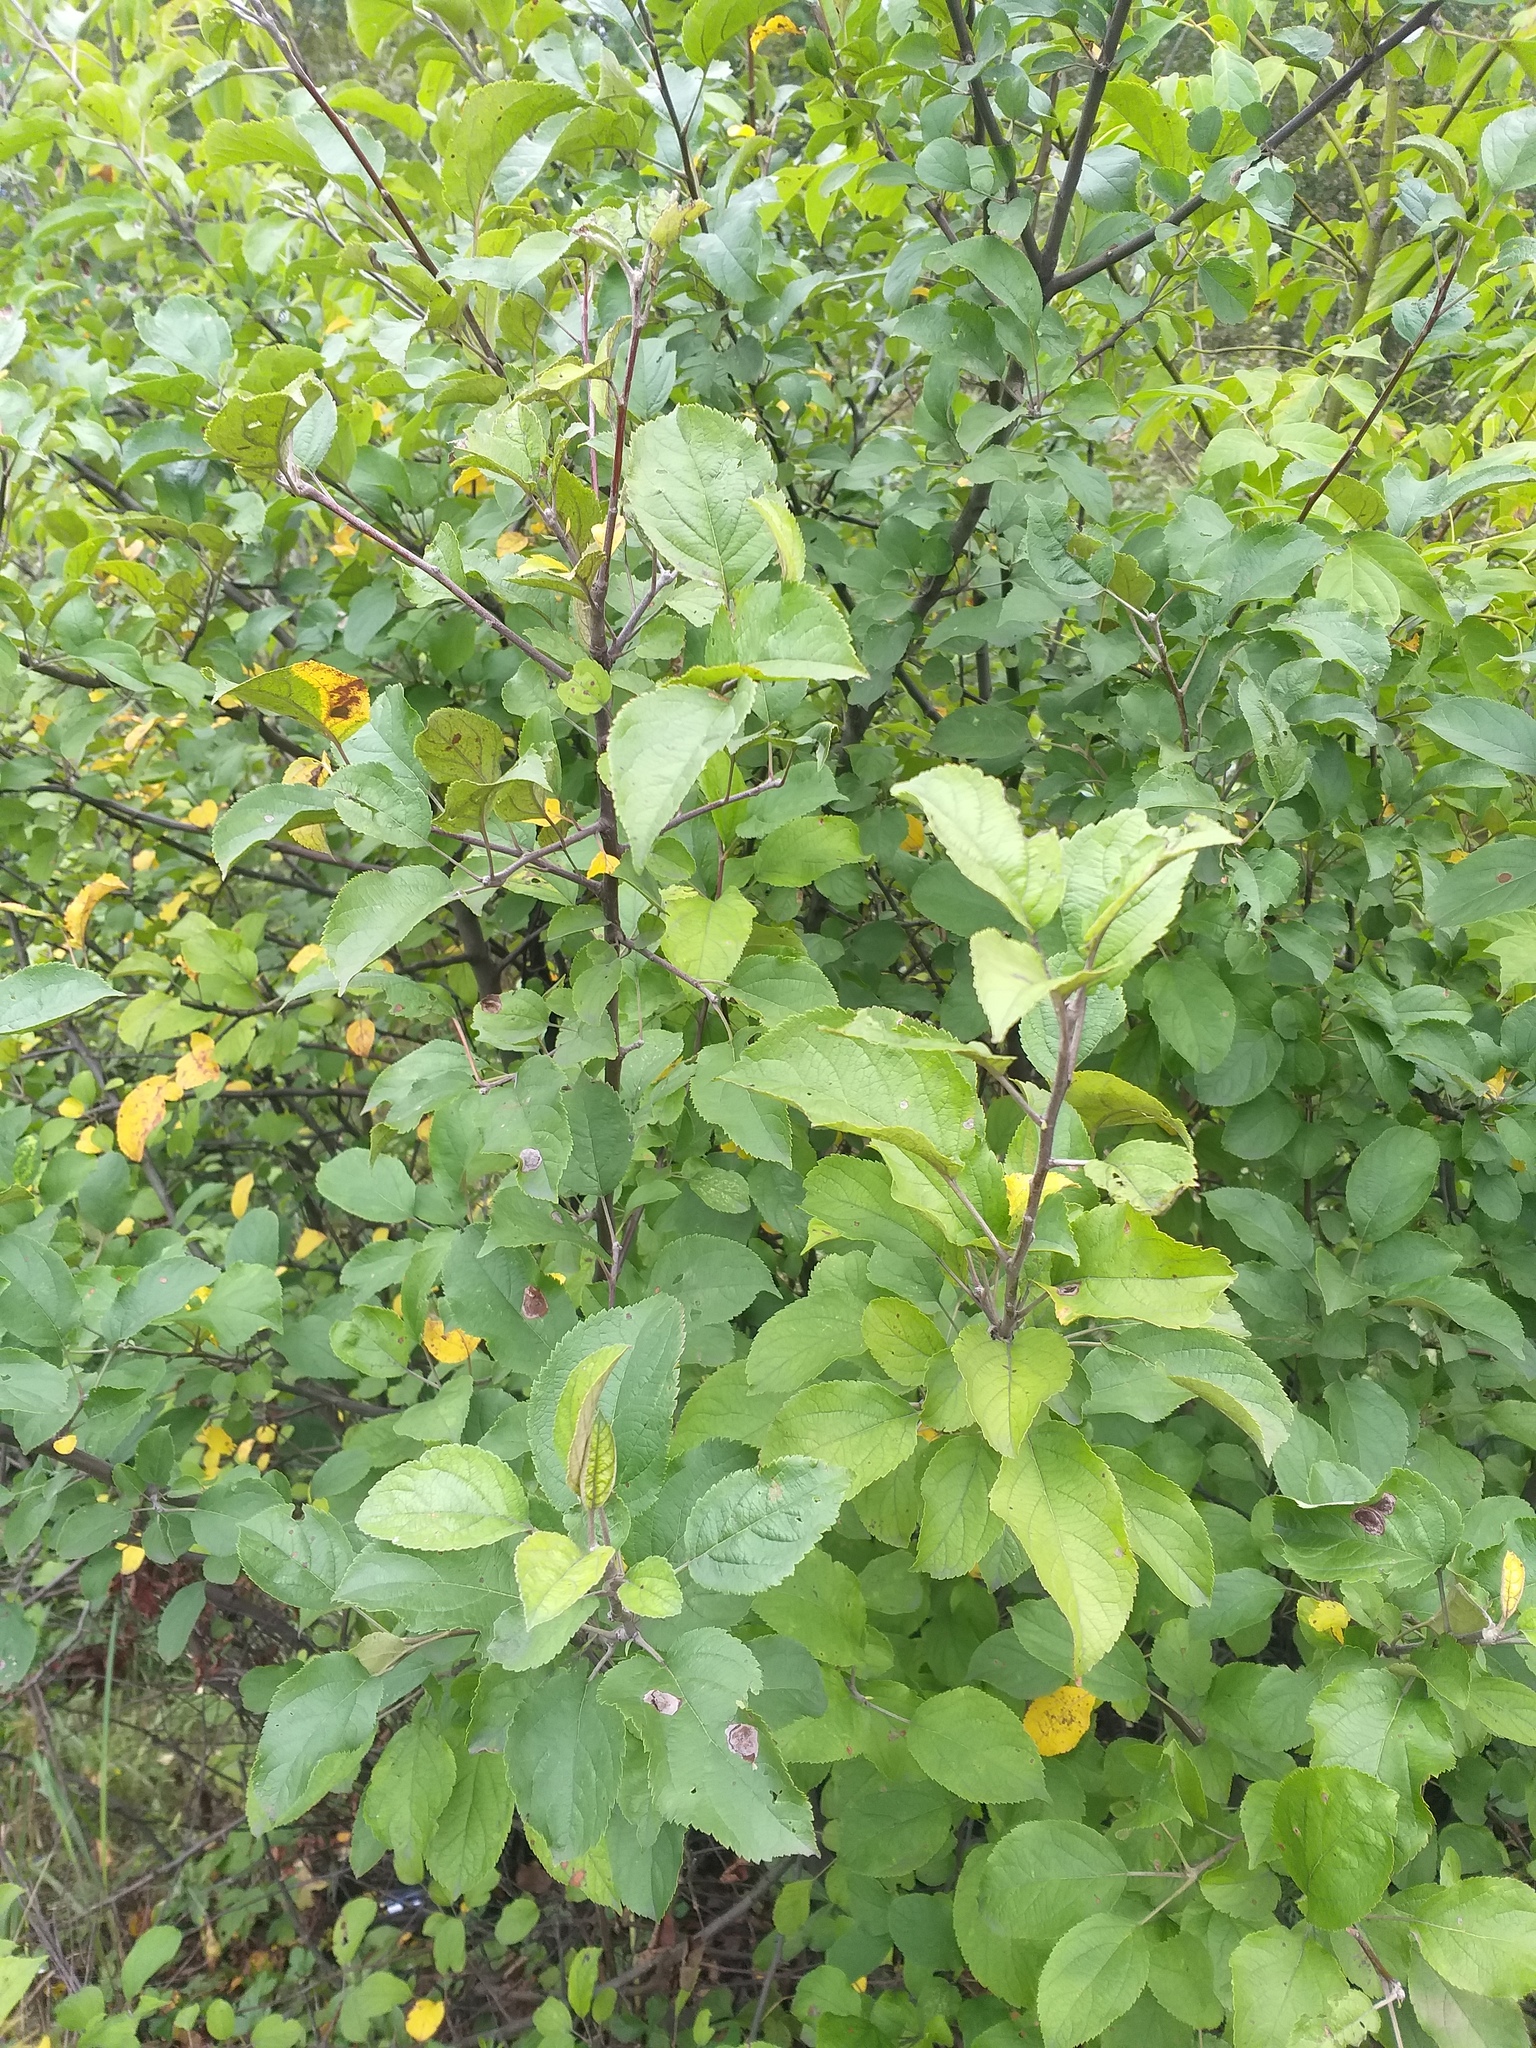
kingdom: Plantae
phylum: Tracheophyta
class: Magnoliopsida
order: Rosales
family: Rosaceae
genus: Malus
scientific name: Malus domestica
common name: Apple
